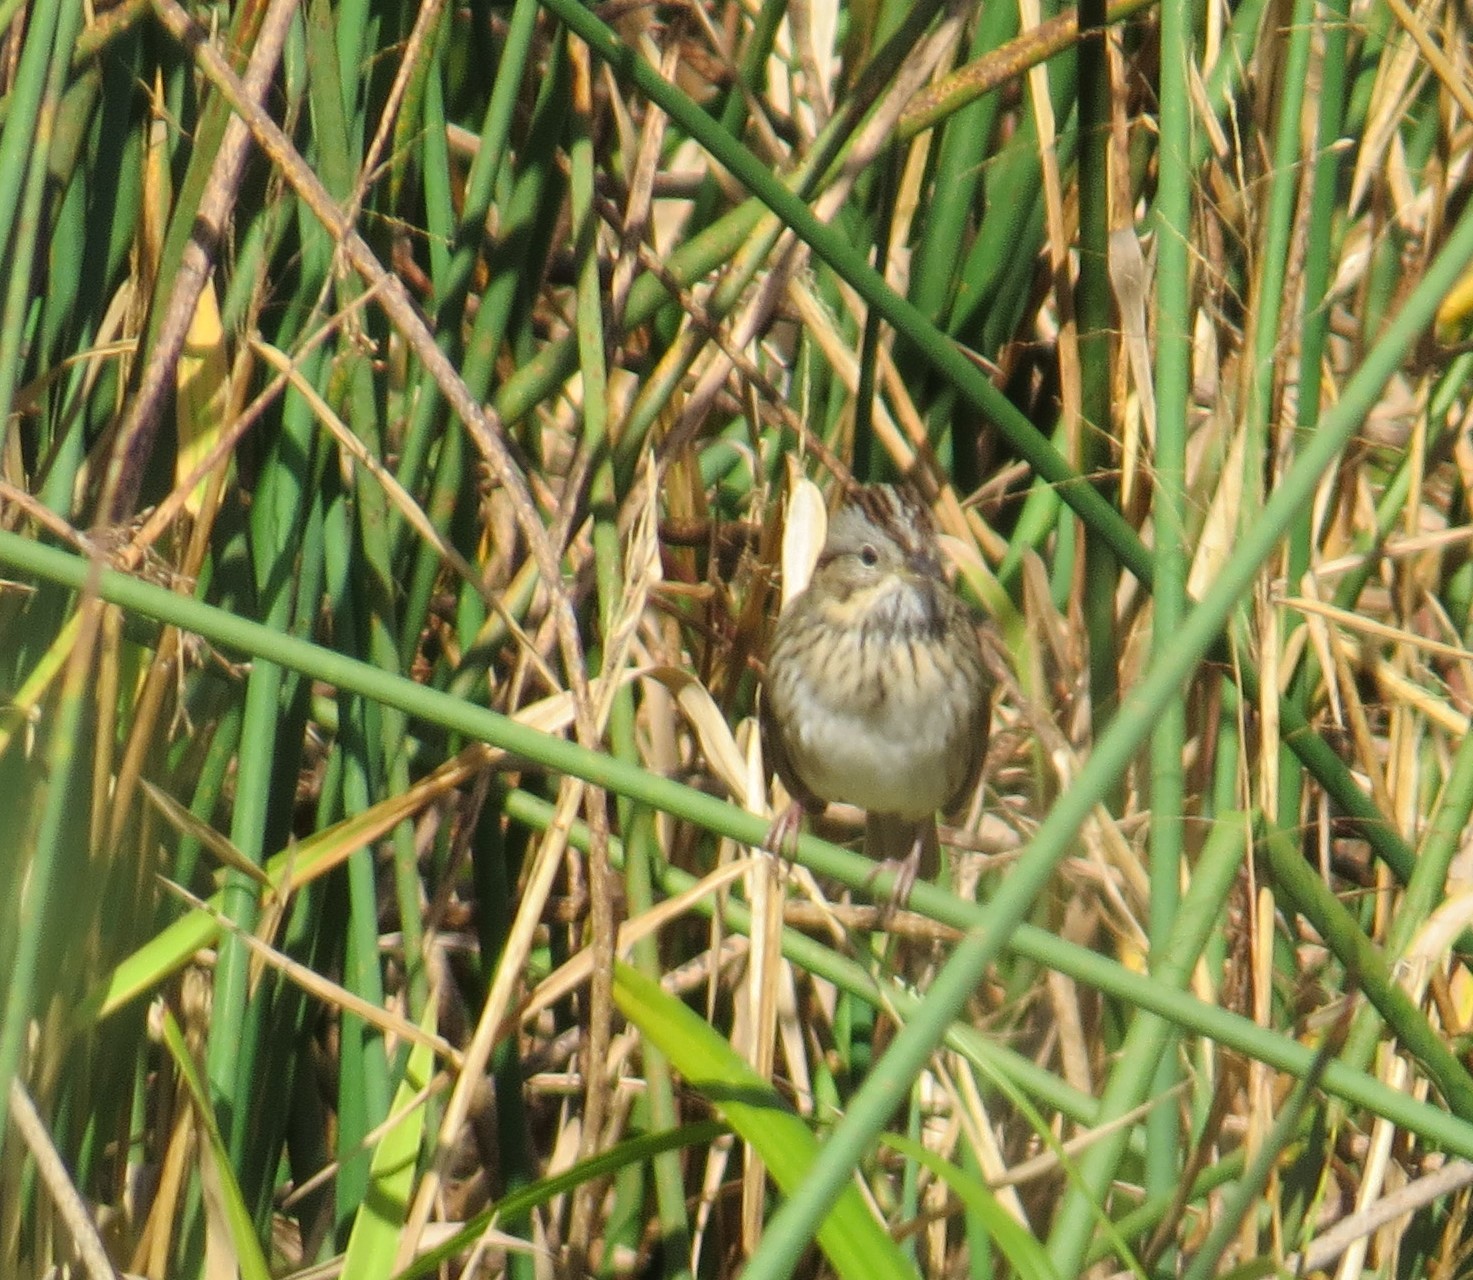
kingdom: Animalia
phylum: Chordata
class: Aves
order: Passeriformes
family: Passerellidae
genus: Melospiza
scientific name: Melospiza lincolnii
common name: Lincoln's sparrow
